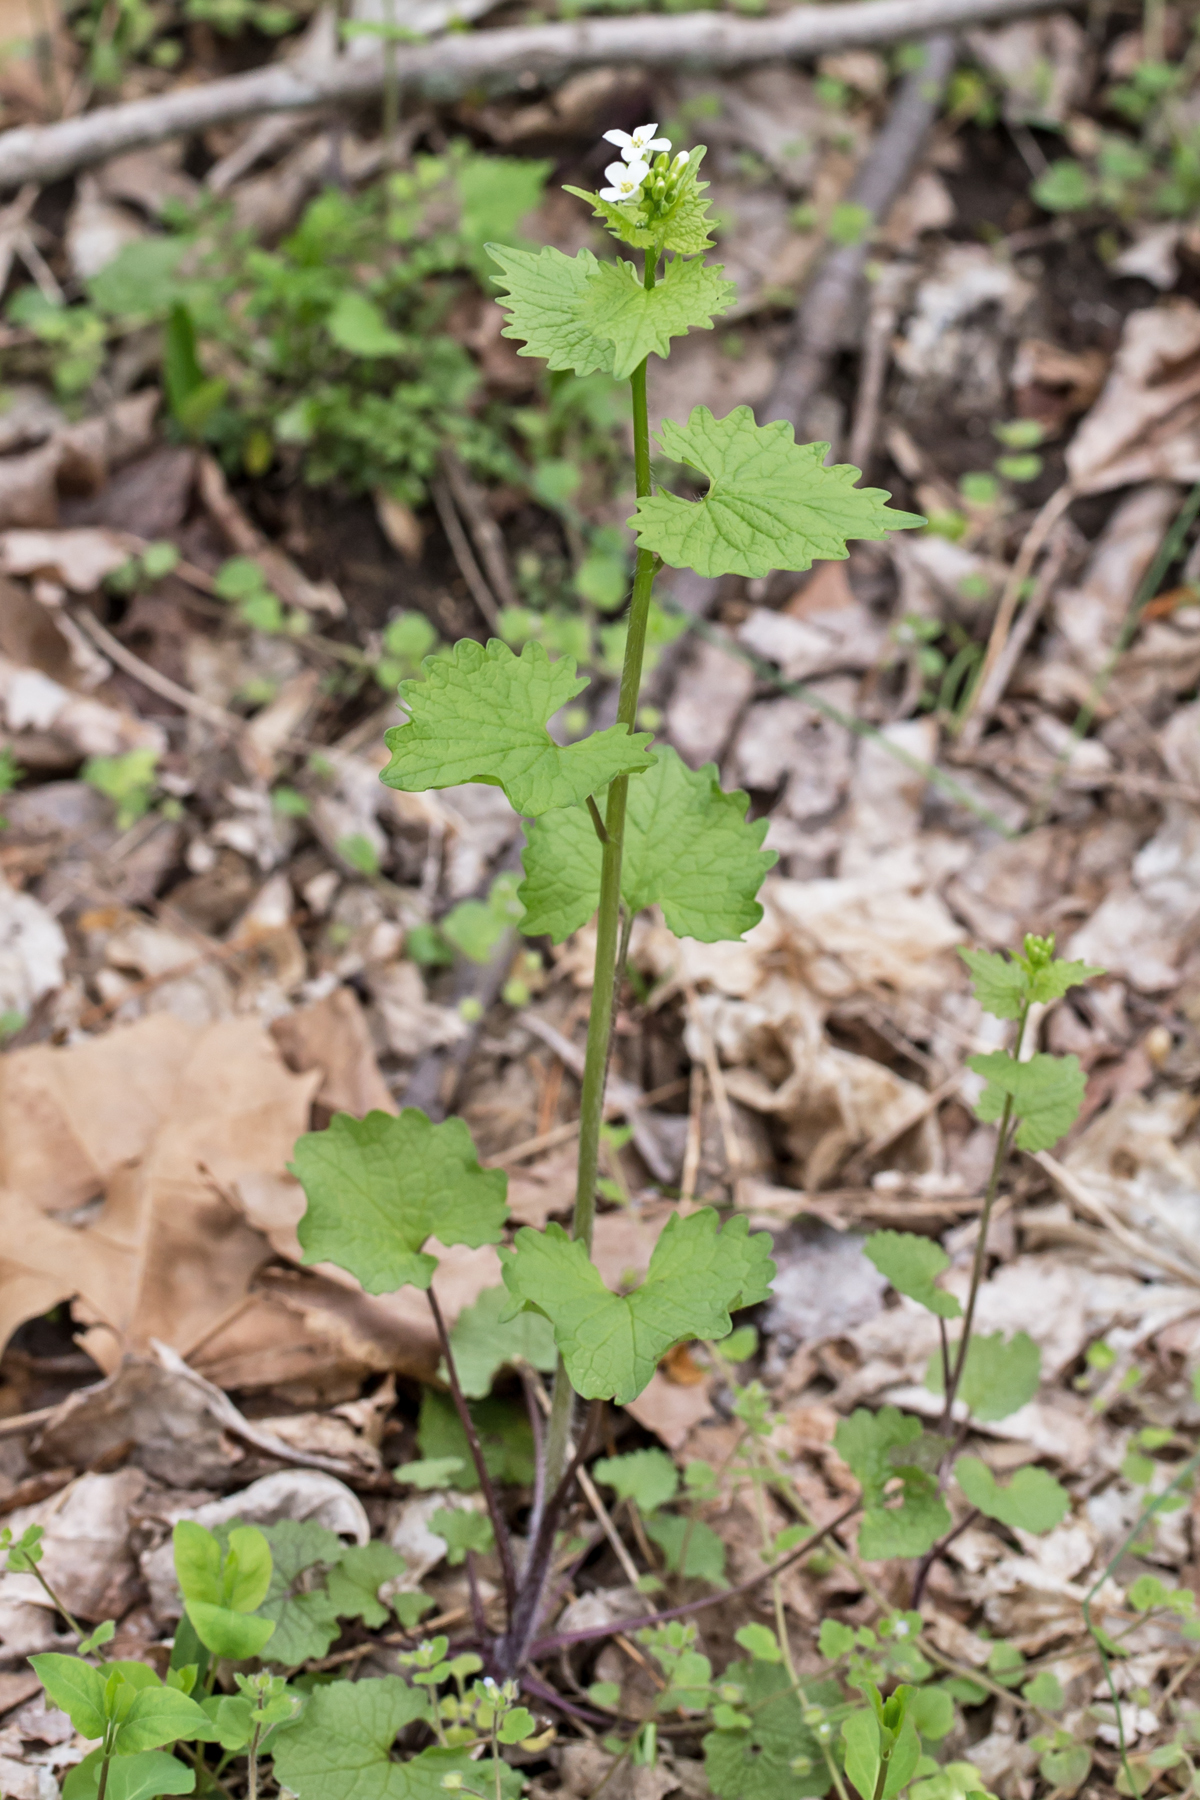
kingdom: Plantae
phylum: Tracheophyta
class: Magnoliopsida
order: Brassicales
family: Brassicaceae
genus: Alliaria
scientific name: Alliaria petiolata
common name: Garlic mustard
